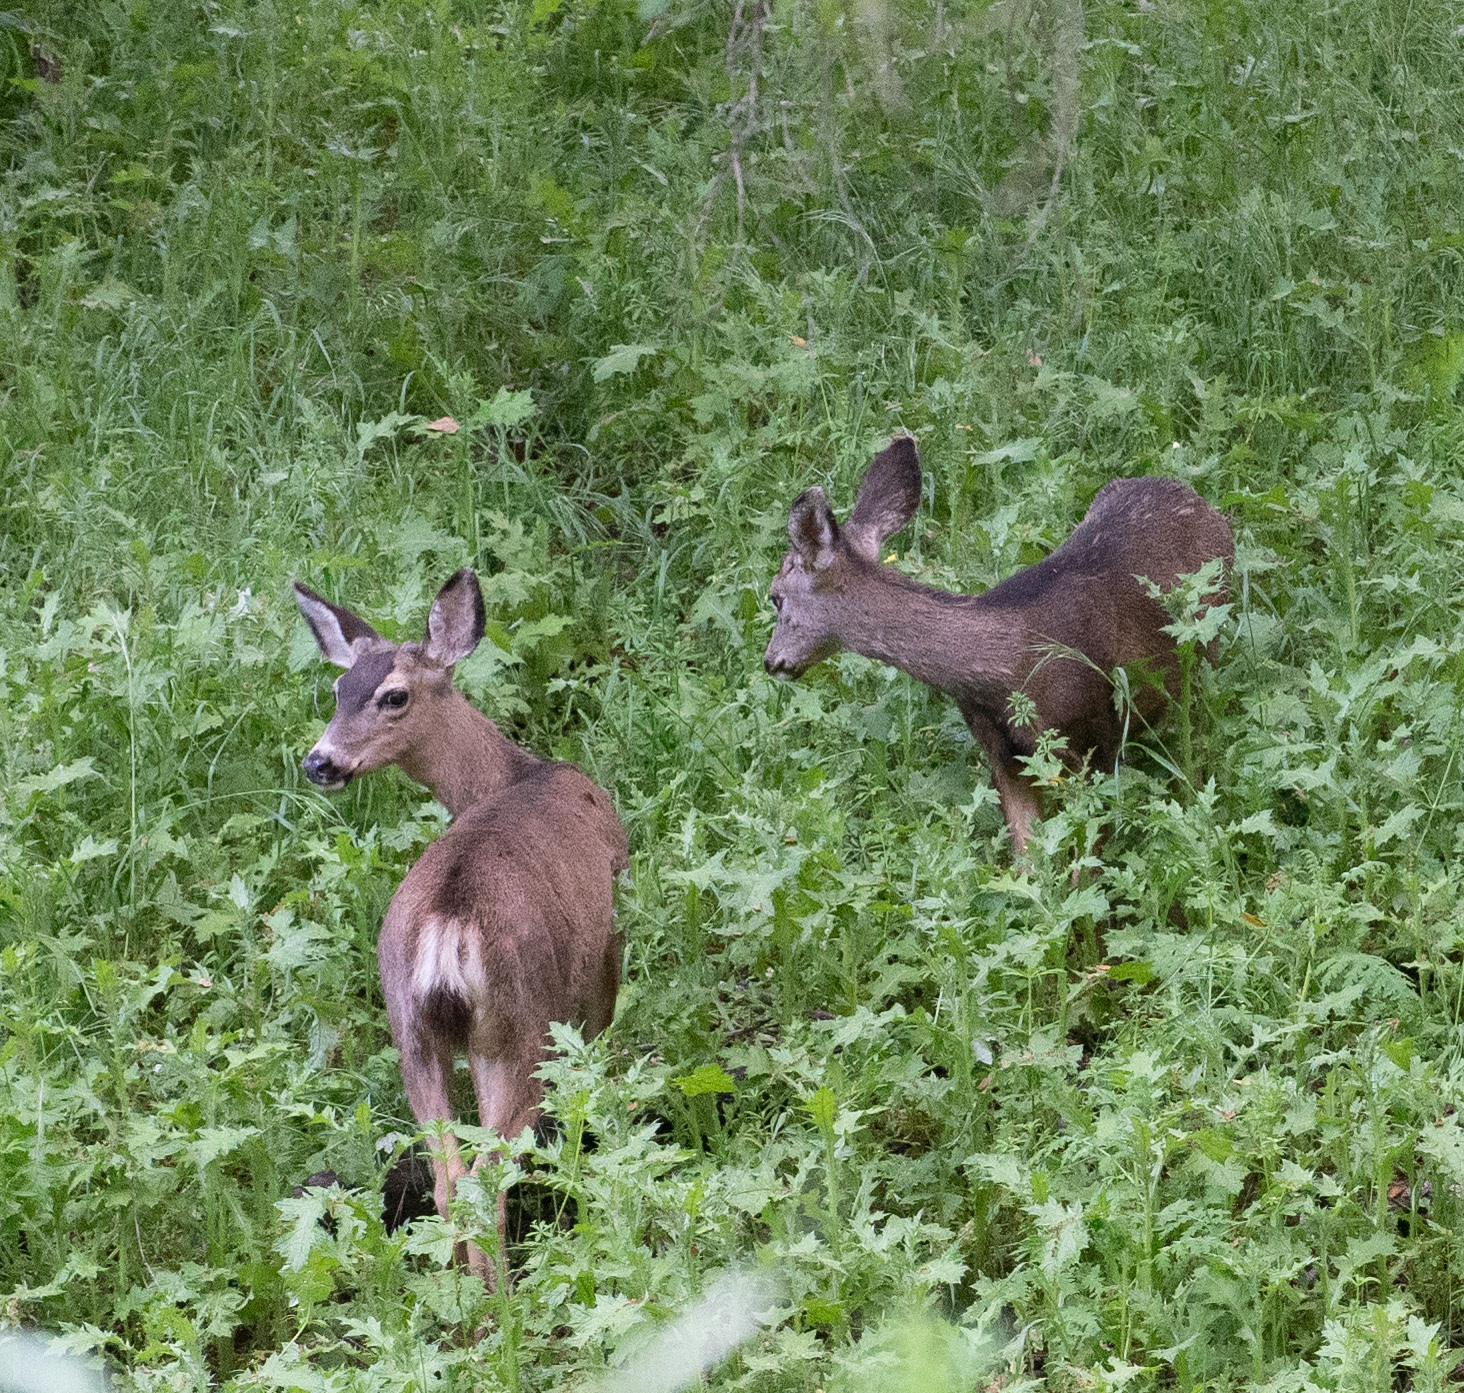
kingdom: Animalia
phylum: Chordata
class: Mammalia
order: Artiodactyla
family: Cervidae
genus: Odocoileus
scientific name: Odocoileus hemionus
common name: Mule deer
